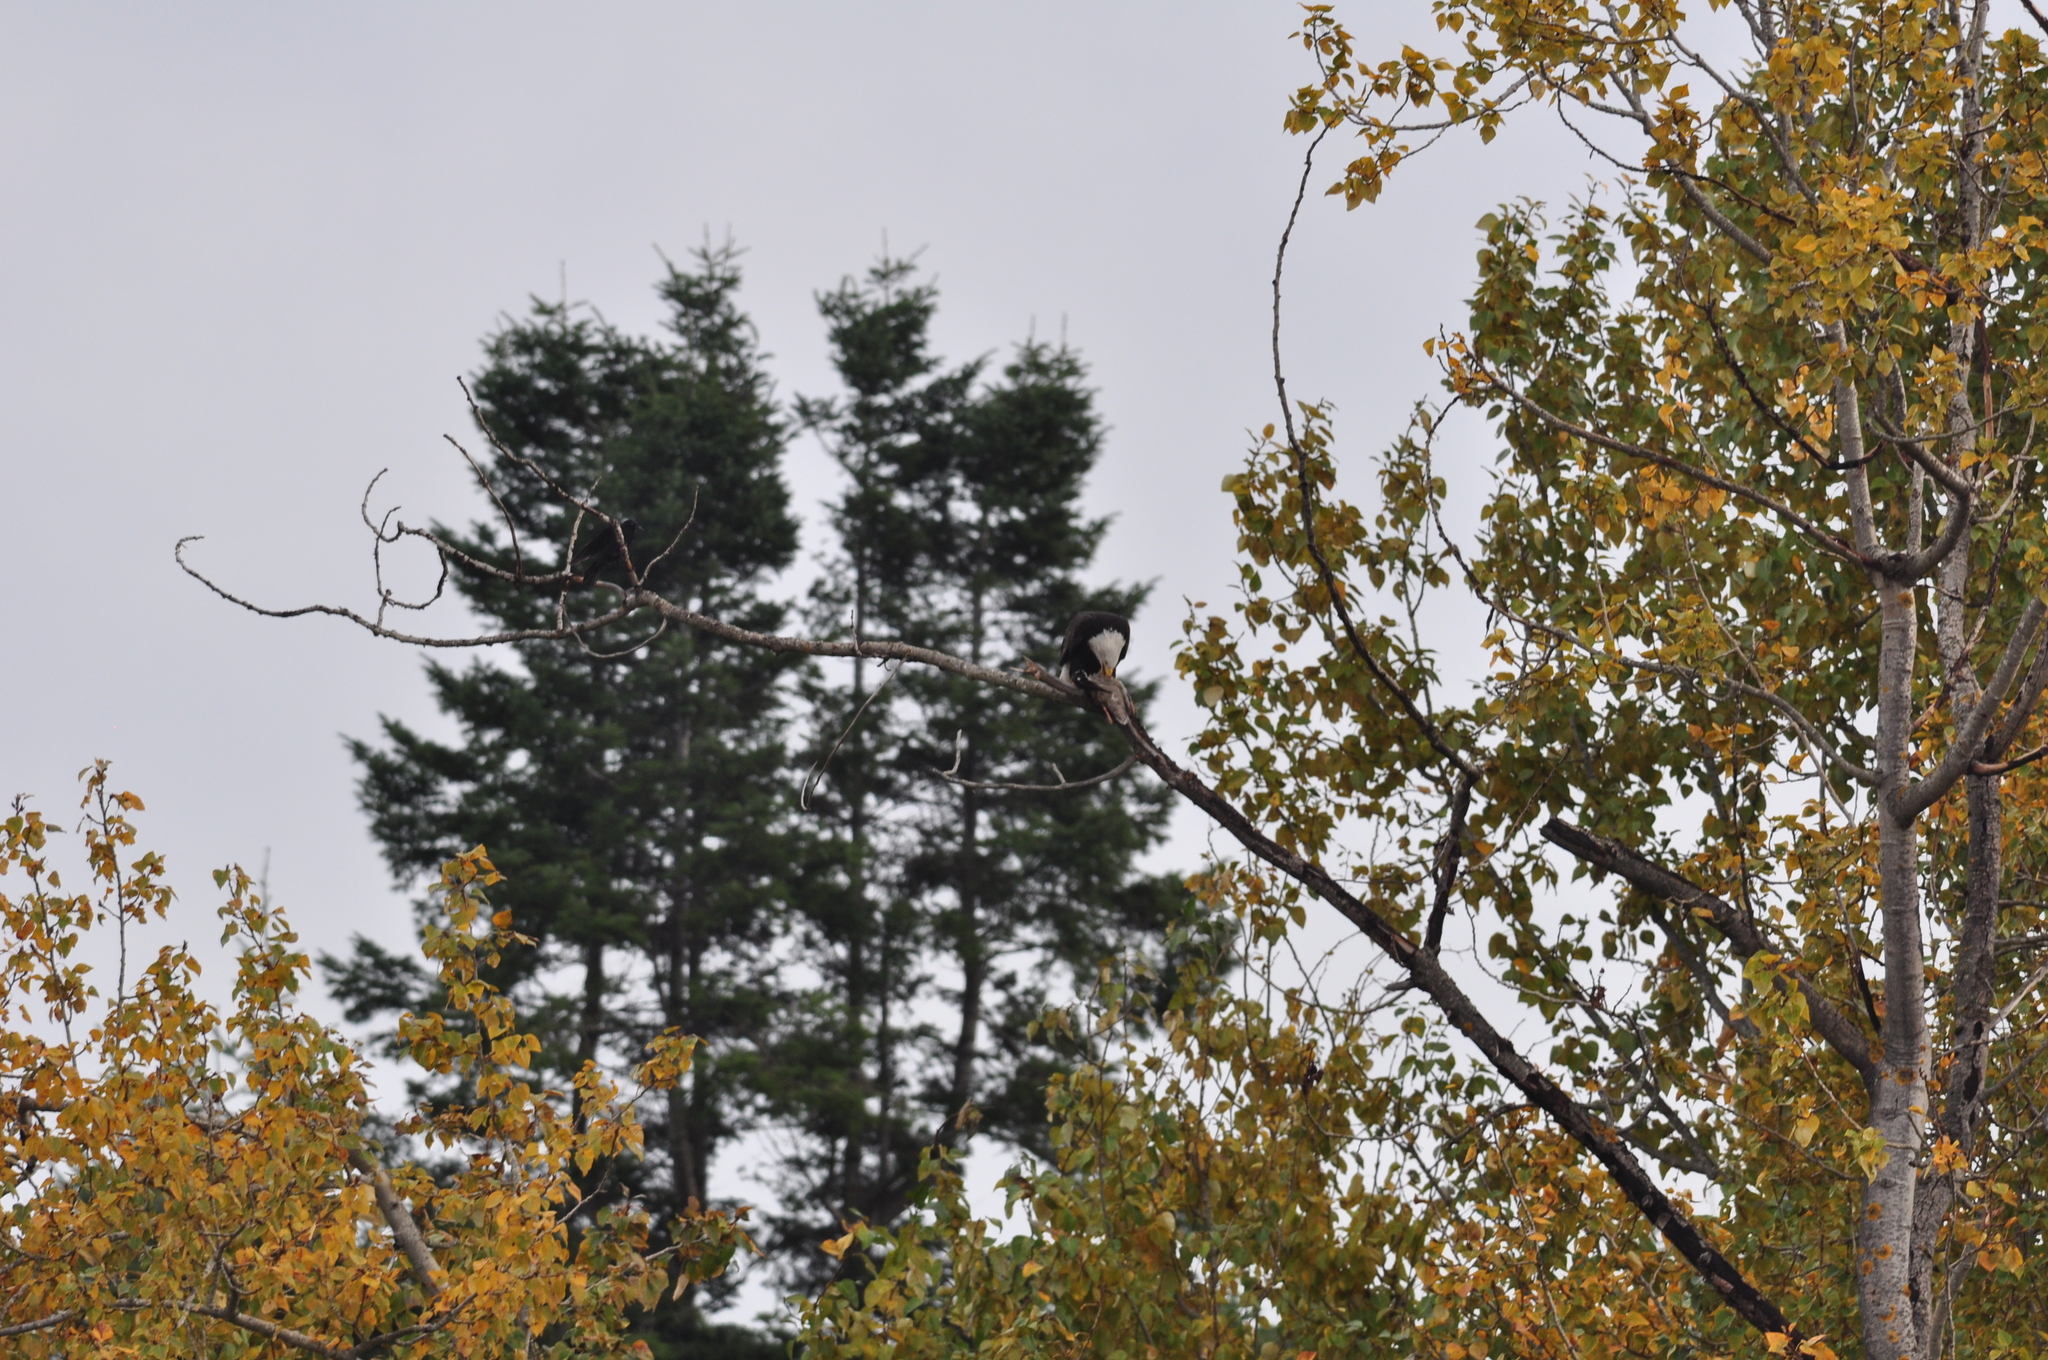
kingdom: Animalia
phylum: Chordata
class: Aves
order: Accipitriformes
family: Accipitridae
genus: Haliaeetus
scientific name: Haliaeetus leucocephalus
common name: Bald eagle
